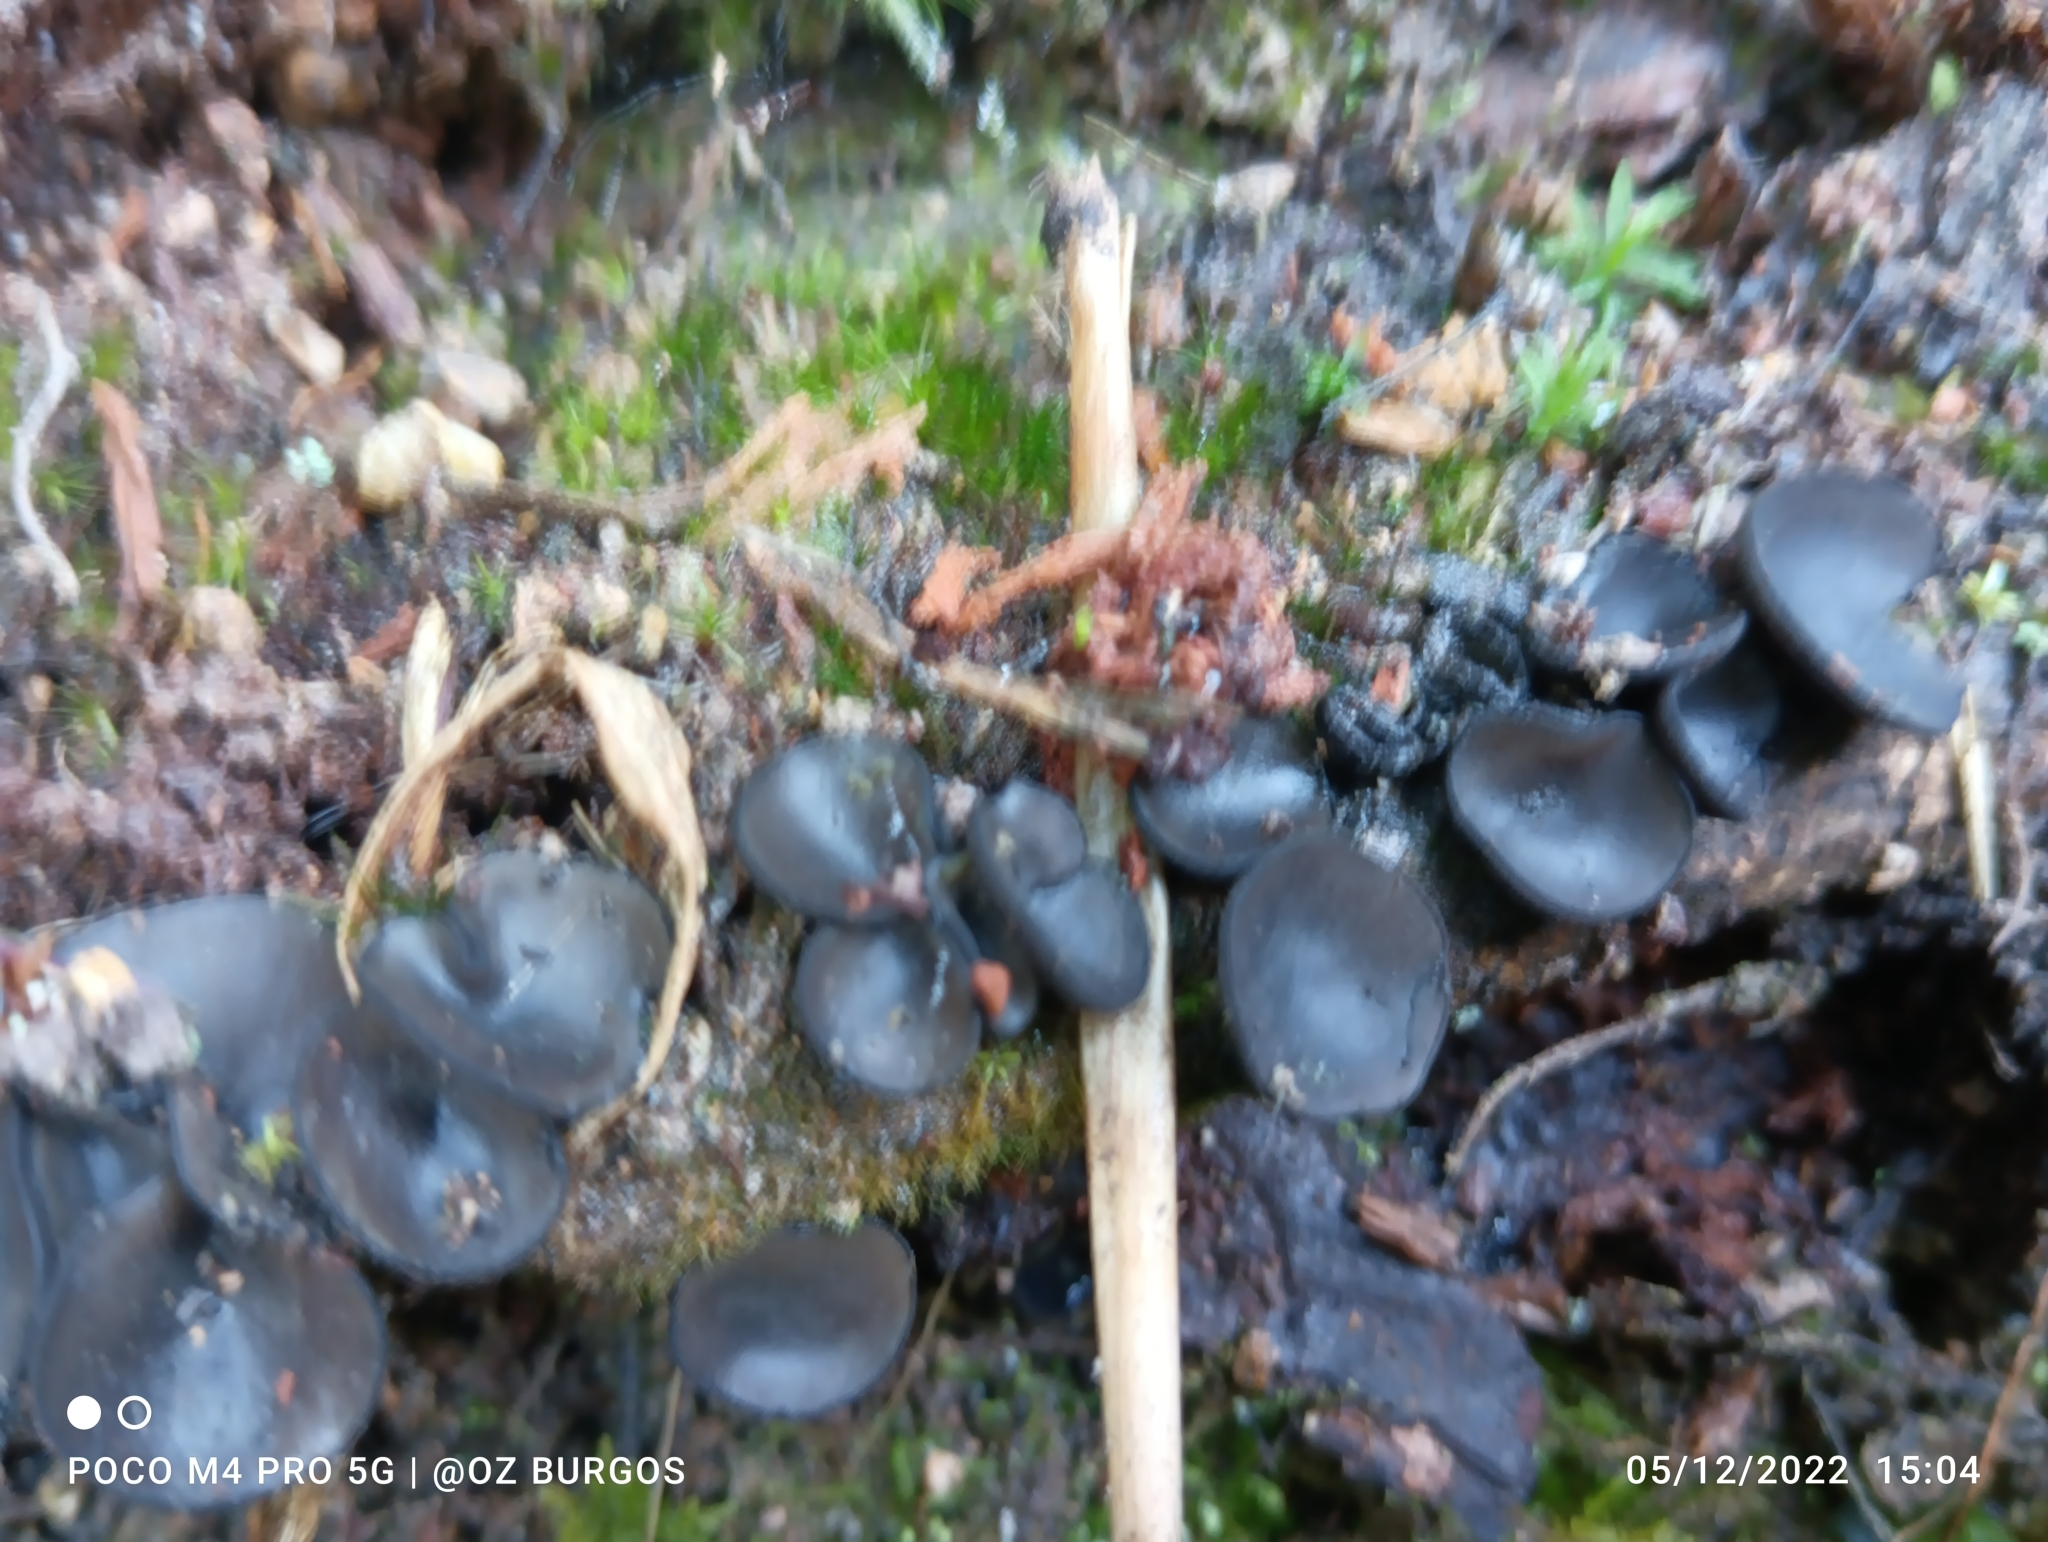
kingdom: Fungi
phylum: Ascomycota
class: Leotiomycetes
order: Helotiales
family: Rutstroemiaceae
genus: Lanzia
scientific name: Lanzia lanaripes
